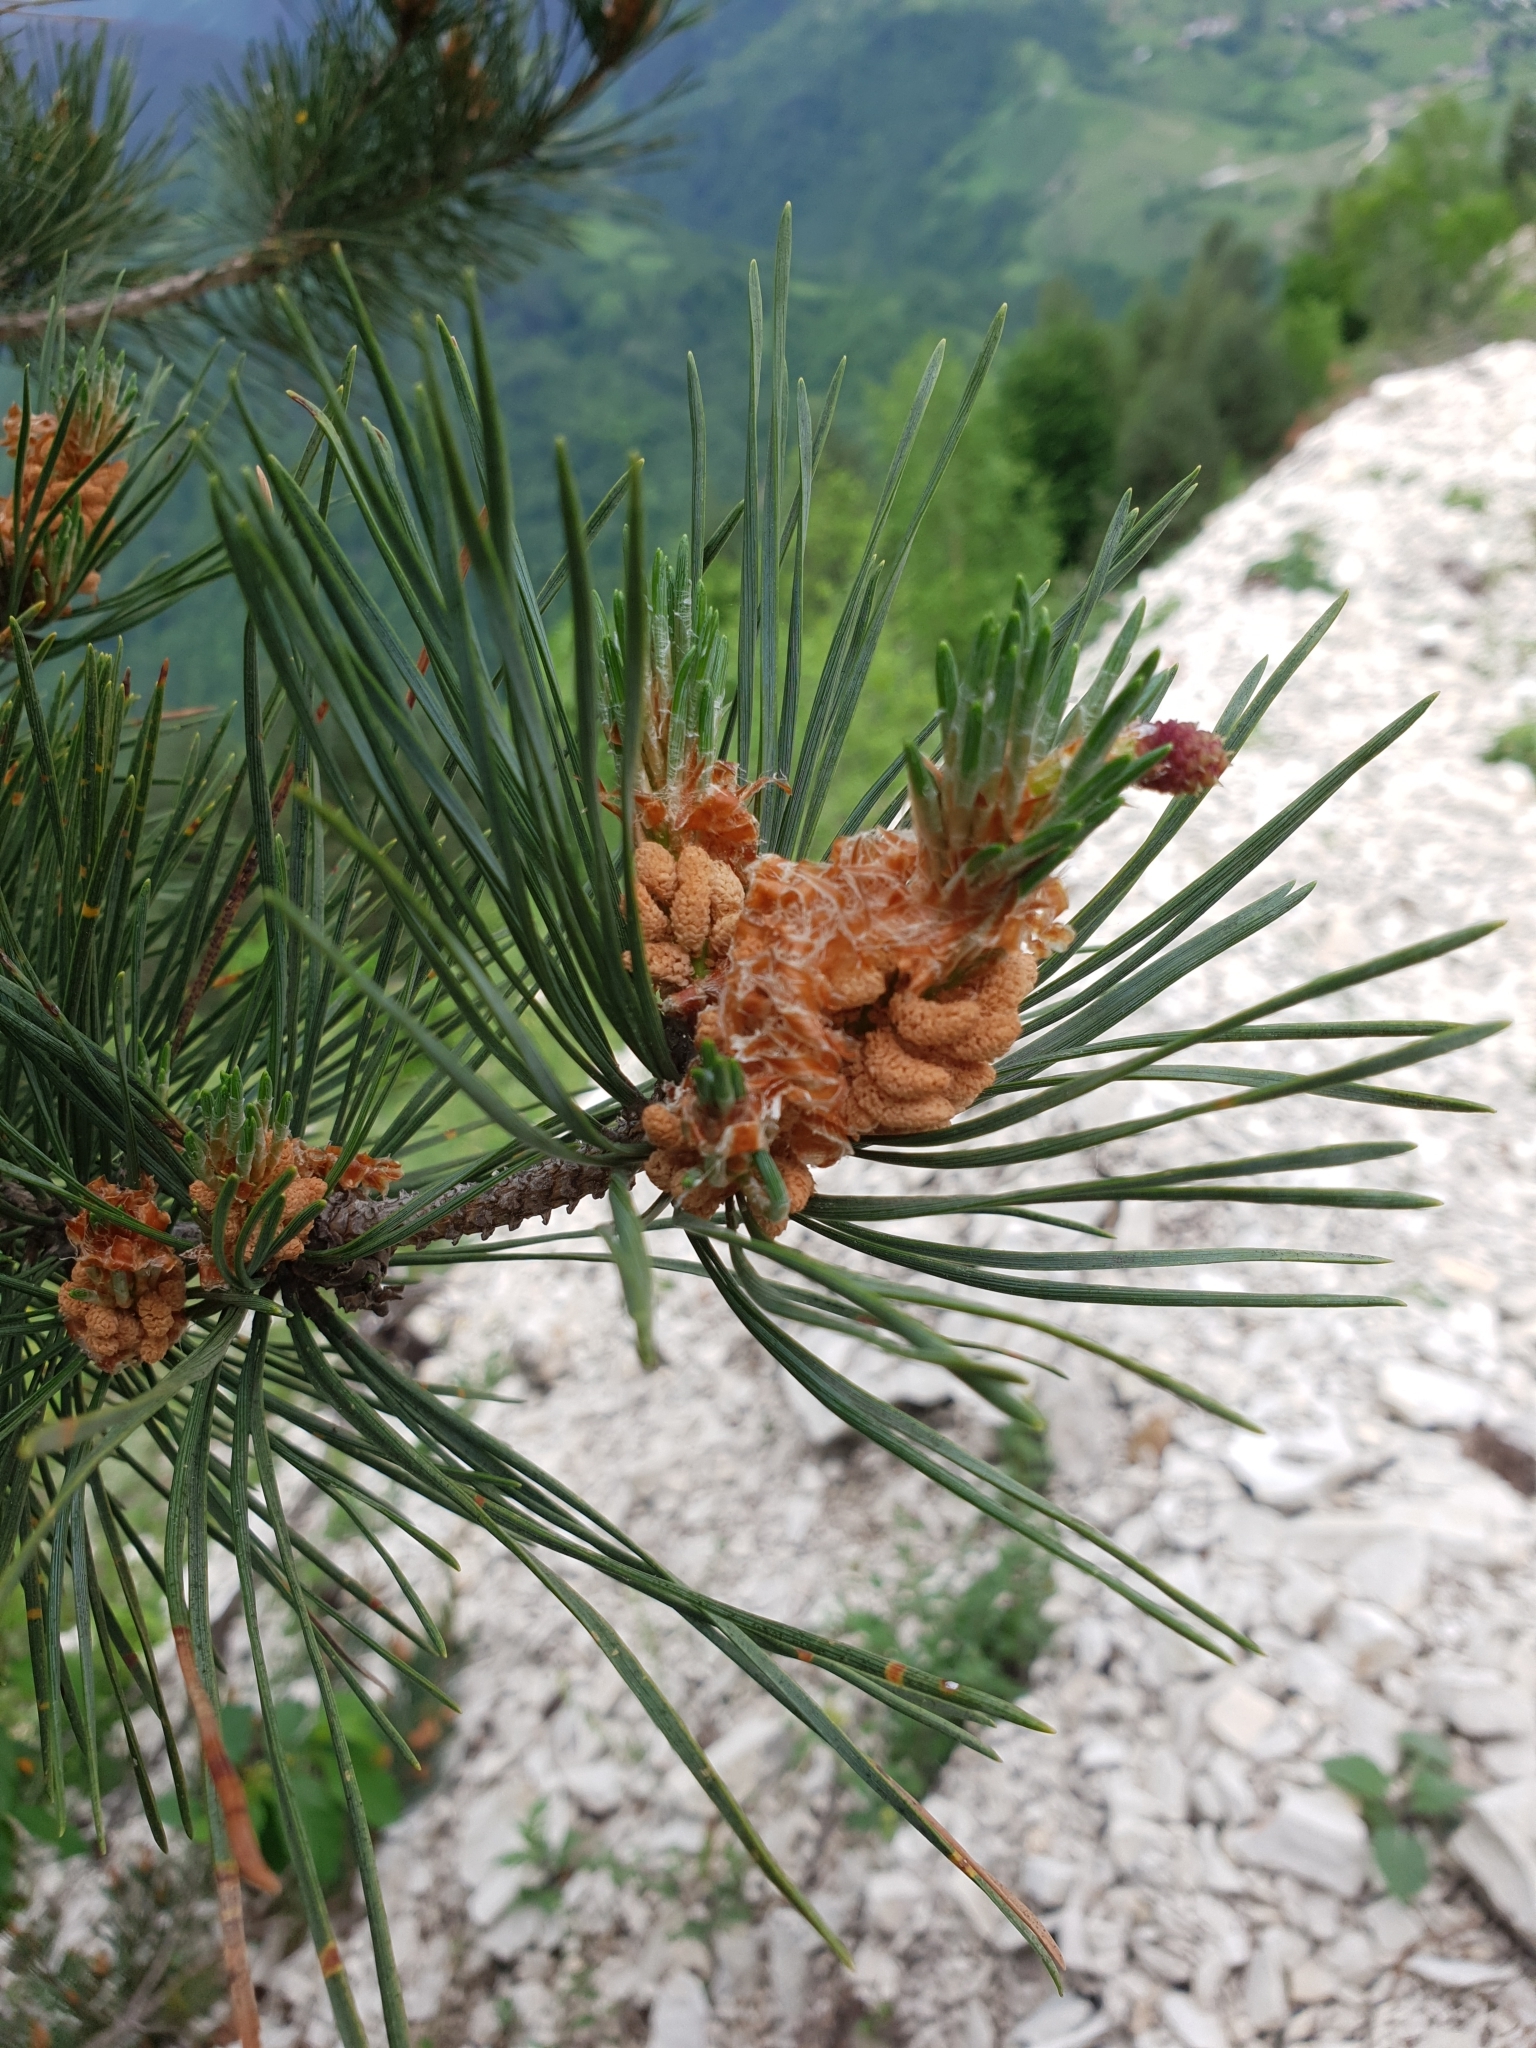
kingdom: Plantae
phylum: Tracheophyta
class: Pinopsida
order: Pinales
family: Pinaceae
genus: Pinus
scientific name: Pinus sylvestris
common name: Scots pine
